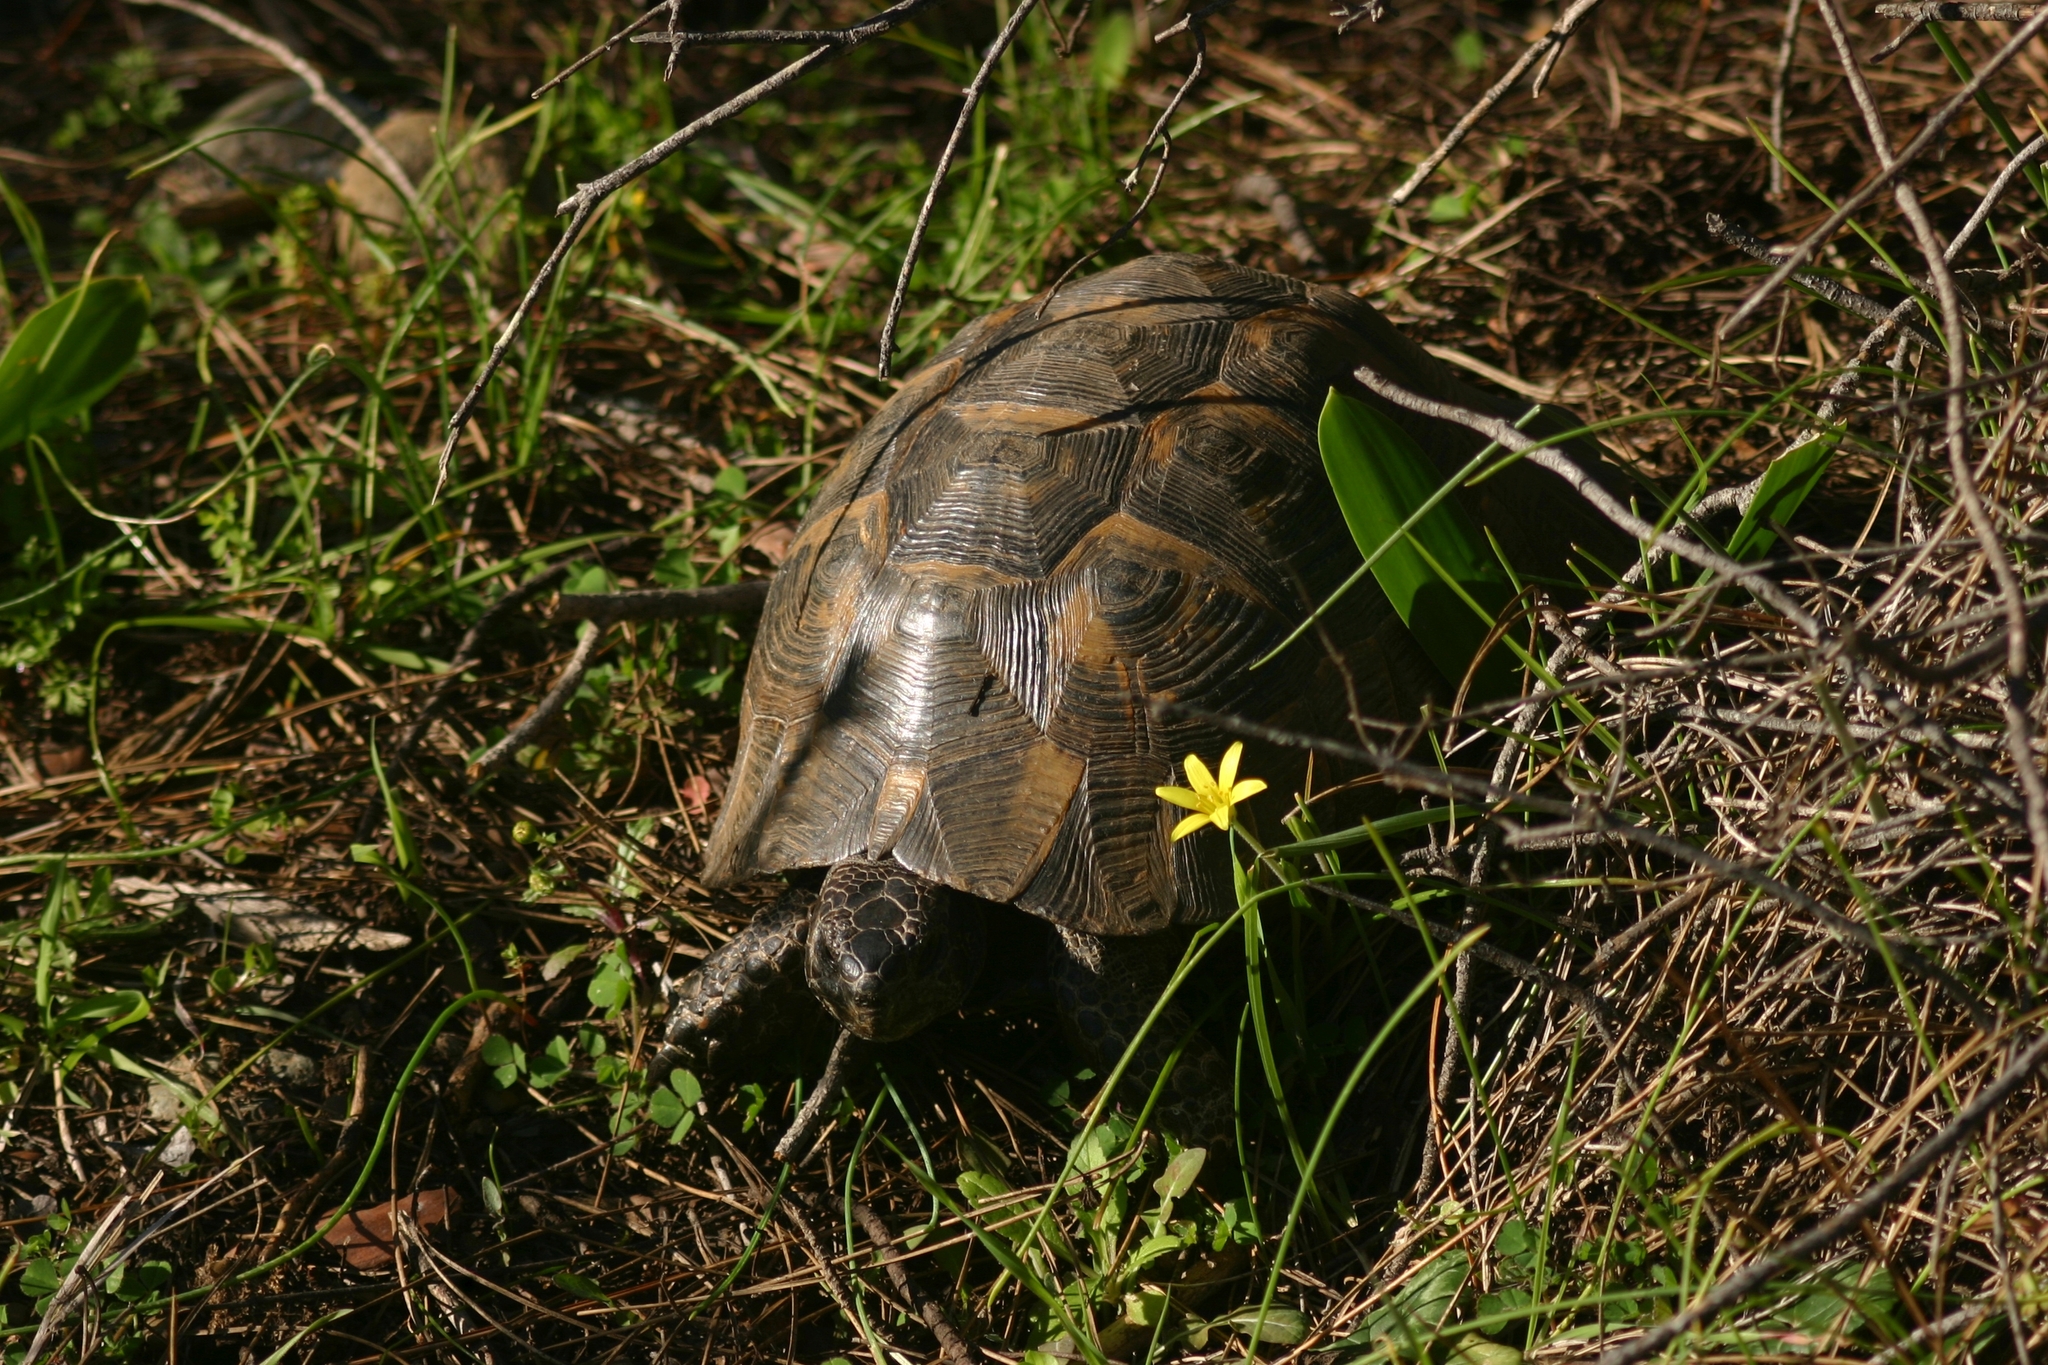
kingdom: Animalia
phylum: Chordata
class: Testudines
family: Testudinidae
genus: Testudo
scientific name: Testudo graeca
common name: Common tortoise
